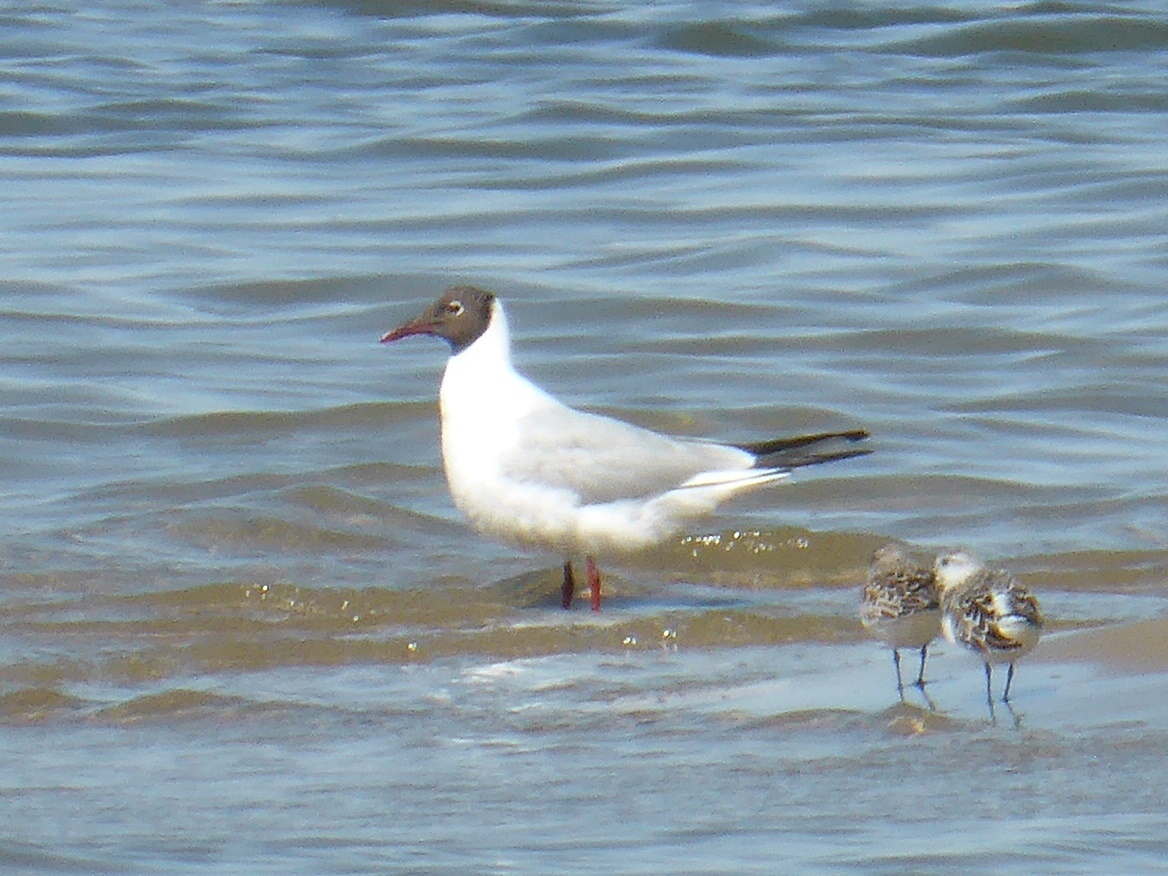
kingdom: Animalia
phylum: Chordata
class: Aves
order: Charadriiformes
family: Laridae
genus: Chroicocephalus
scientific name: Chroicocephalus ridibundus
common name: Black-headed gull
